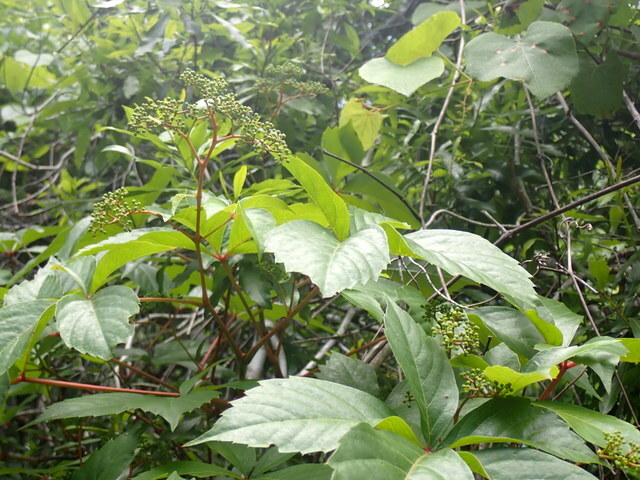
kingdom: Plantae
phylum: Tracheophyta
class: Magnoliopsida
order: Vitales
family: Vitaceae
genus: Parthenocissus
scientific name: Parthenocissus quinquefolia
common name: Virginia-creeper
